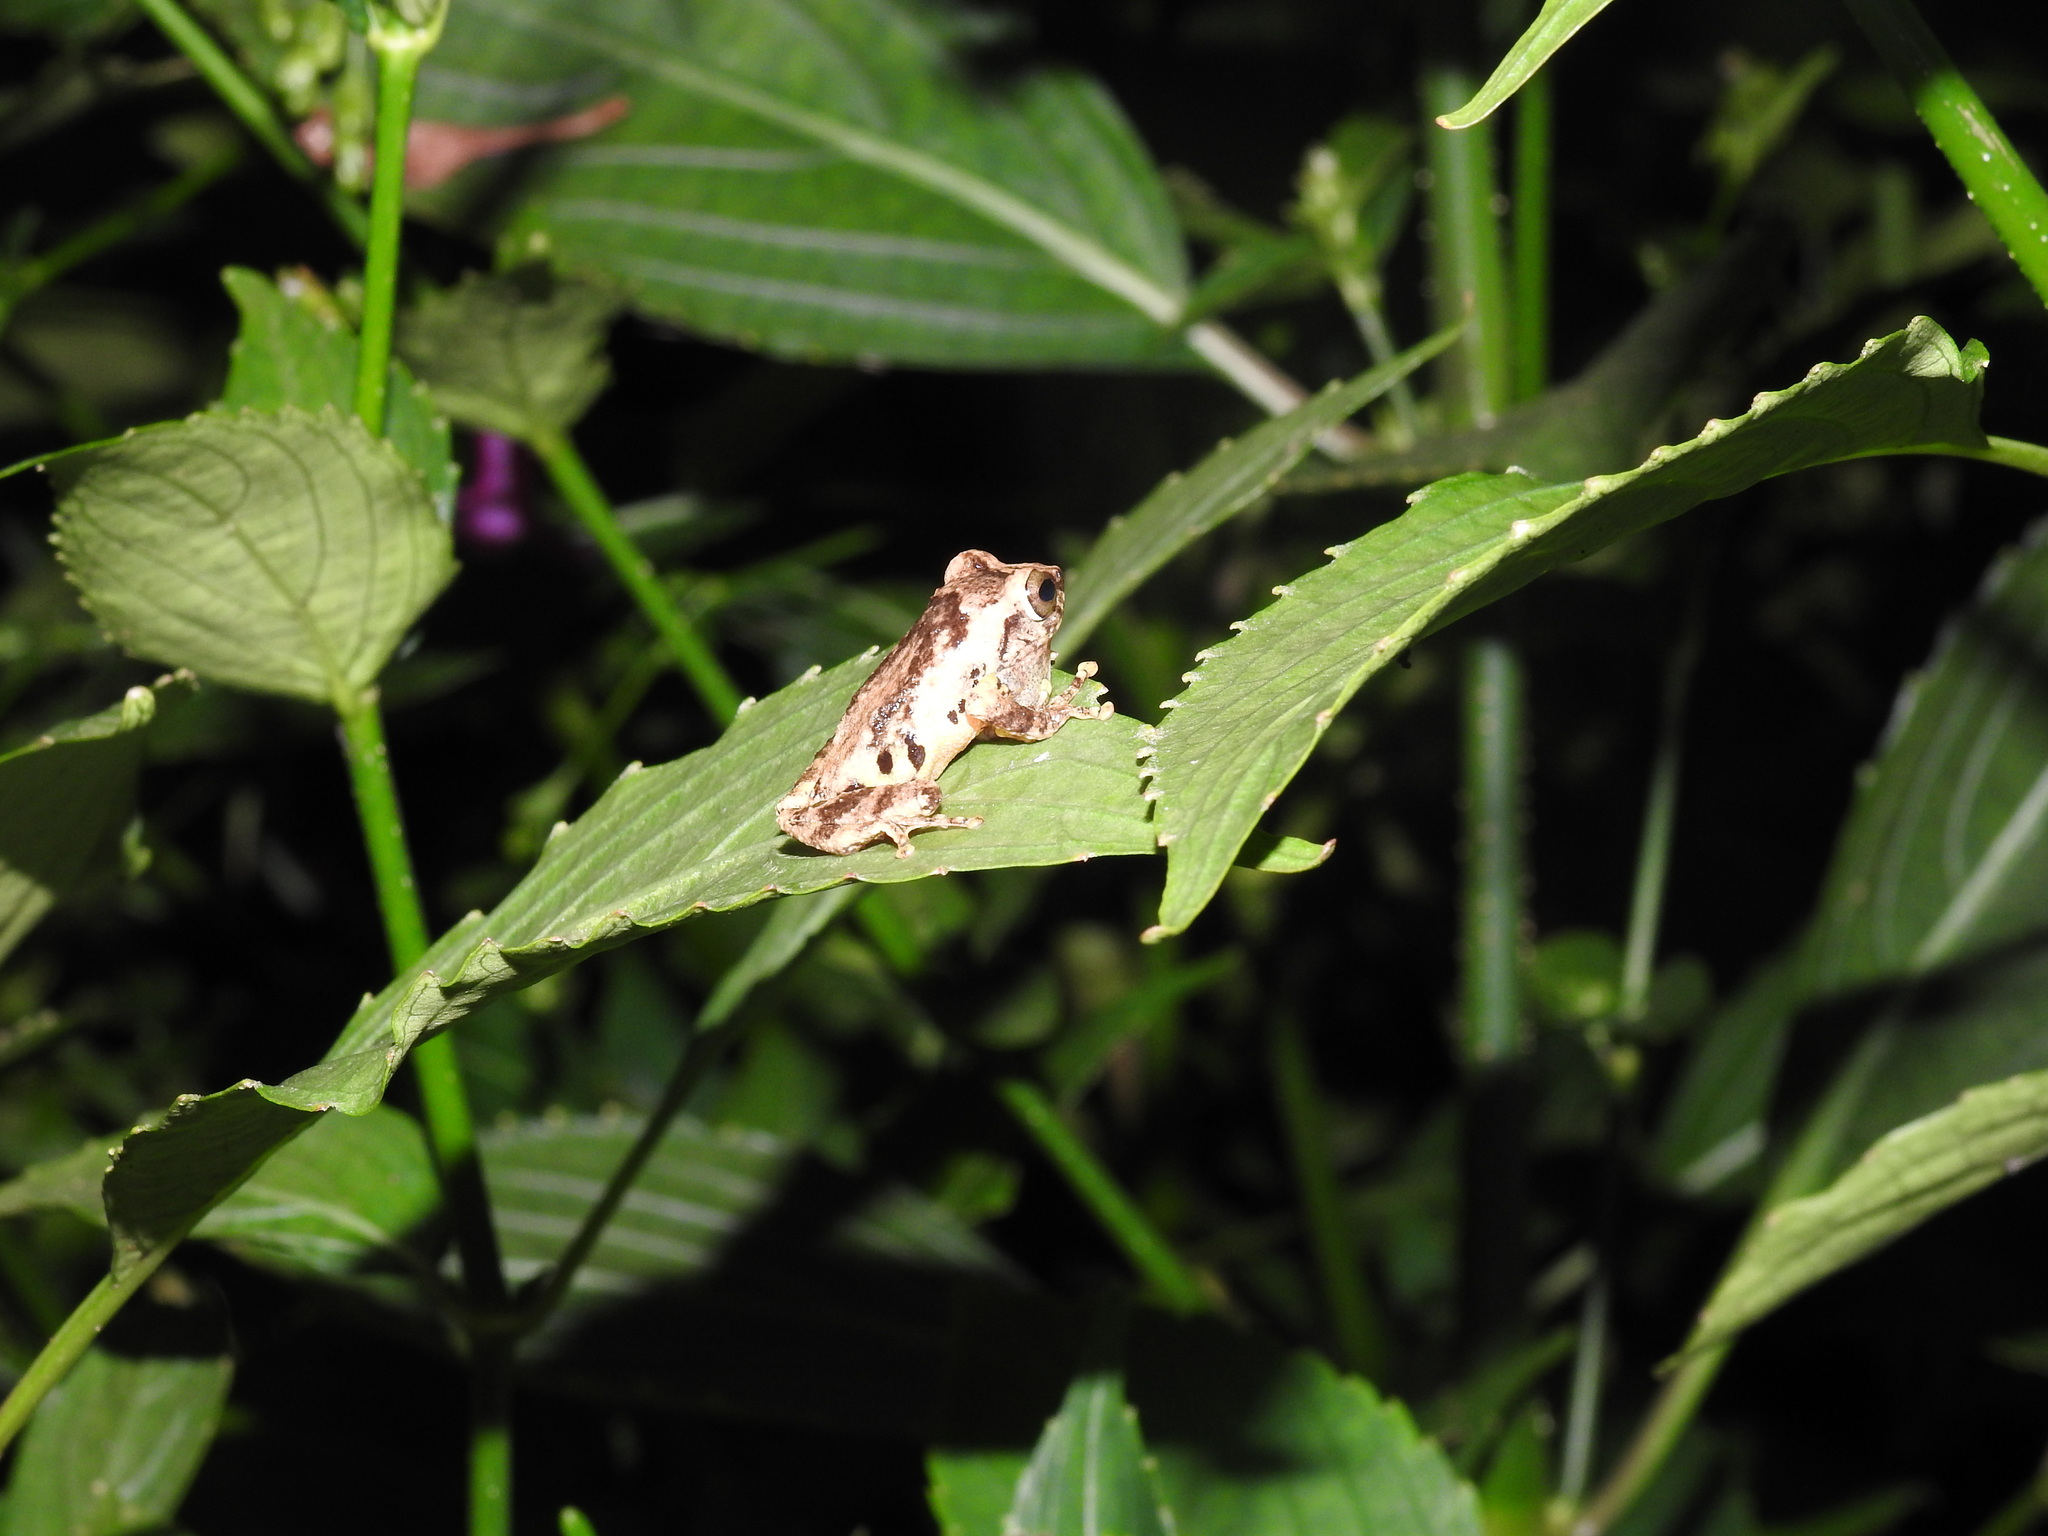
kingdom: Animalia
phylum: Chordata
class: Amphibia
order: Anura
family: Rhacophoridae
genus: Raorchestes
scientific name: Raorchestes anili
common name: Anil's bush frog
